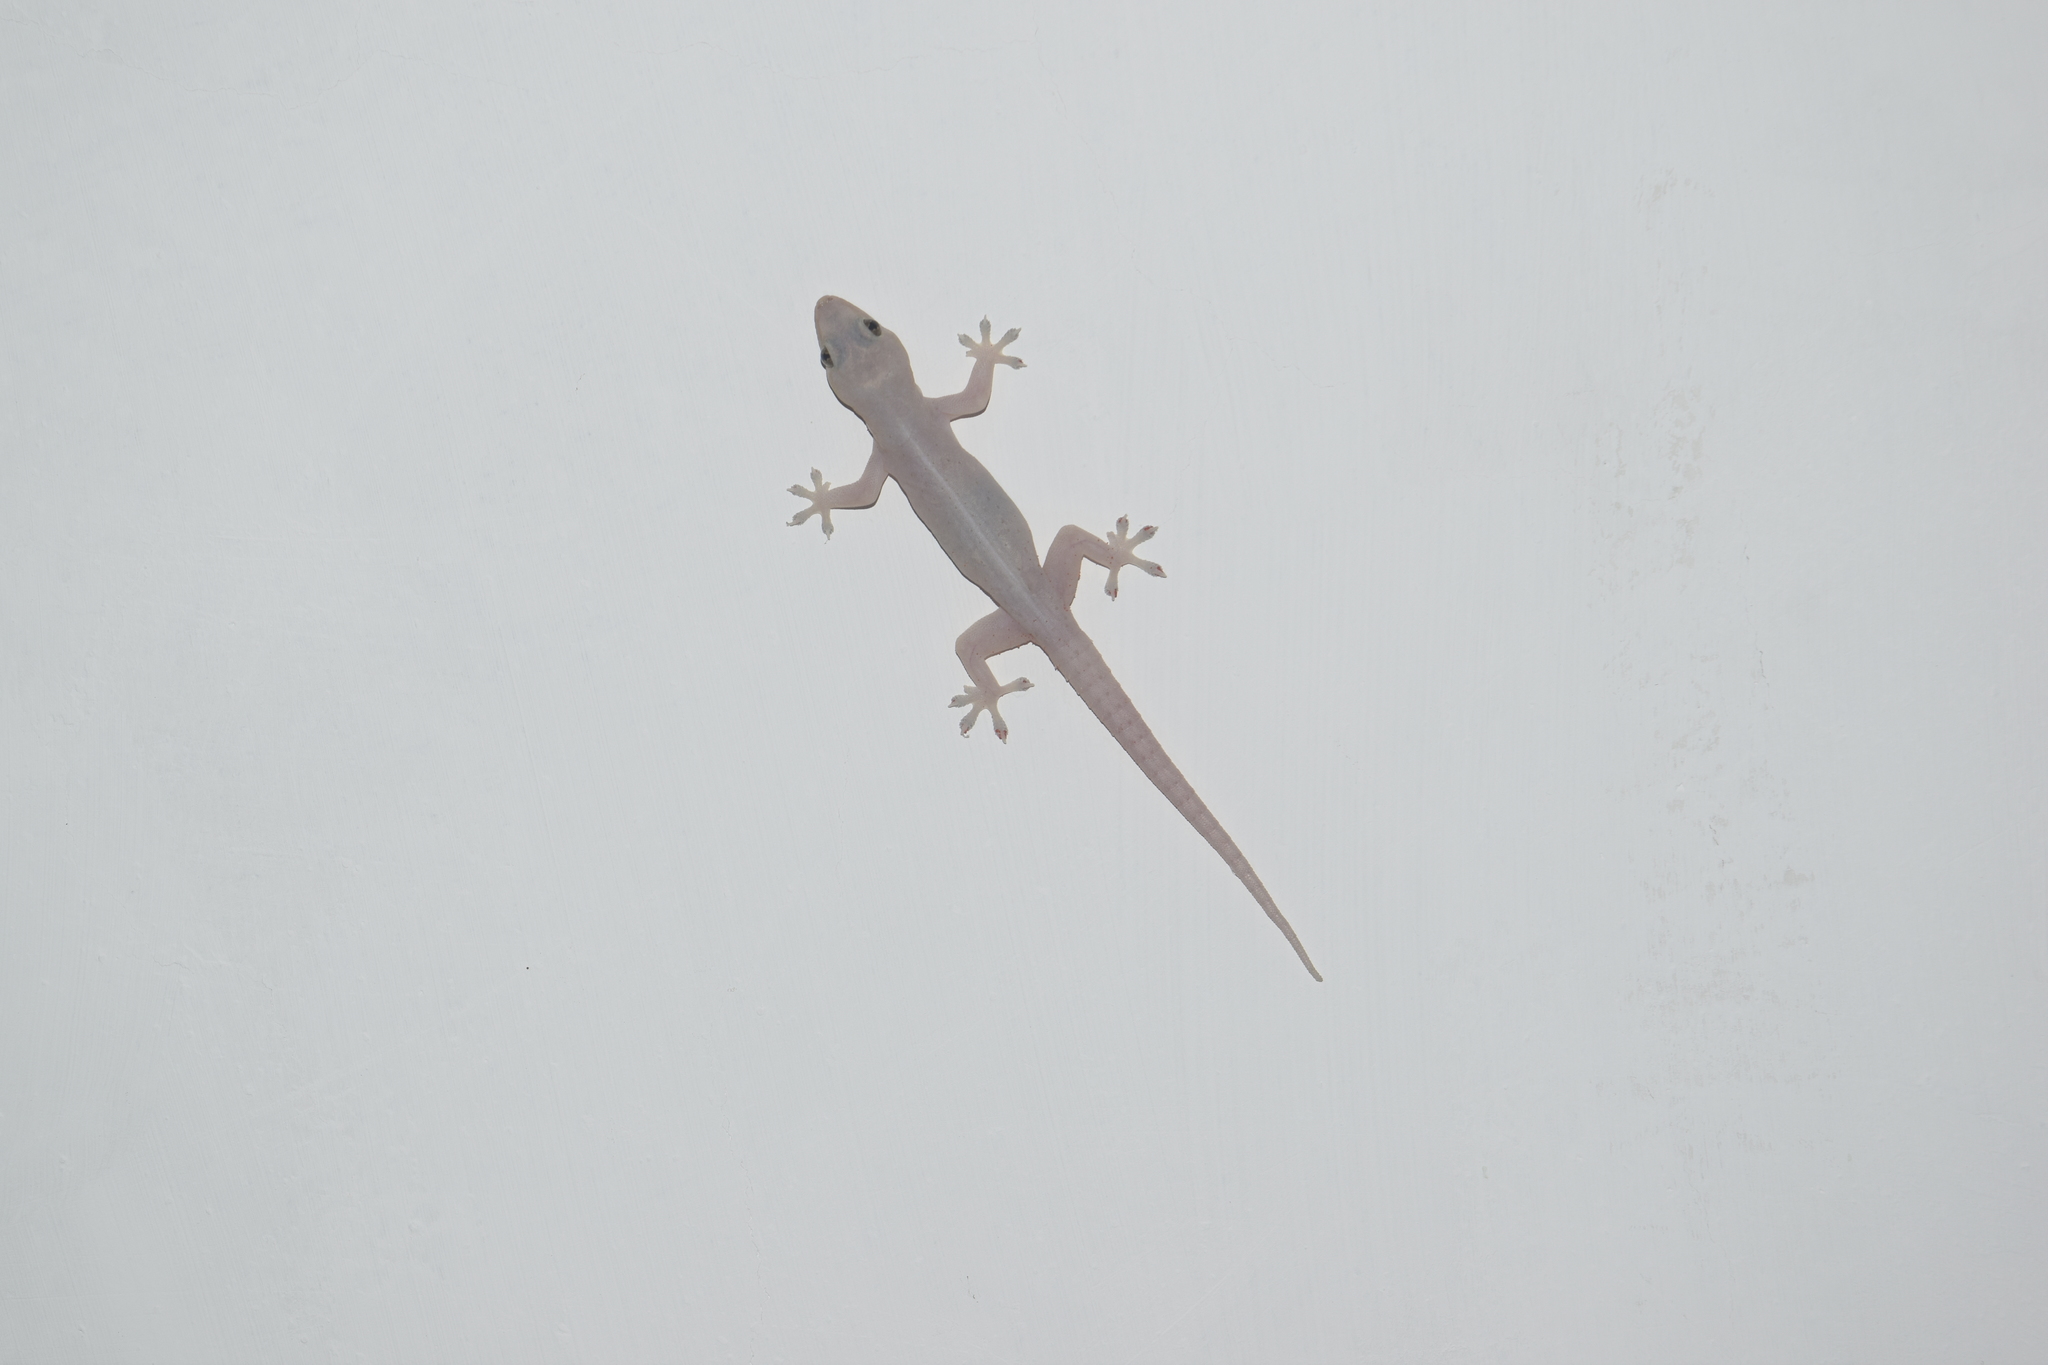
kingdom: Animalia
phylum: Chordata
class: Squamata
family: Gekkonidae
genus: Hemidactylus
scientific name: Hemidactylus frenatus
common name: Common house gecko
